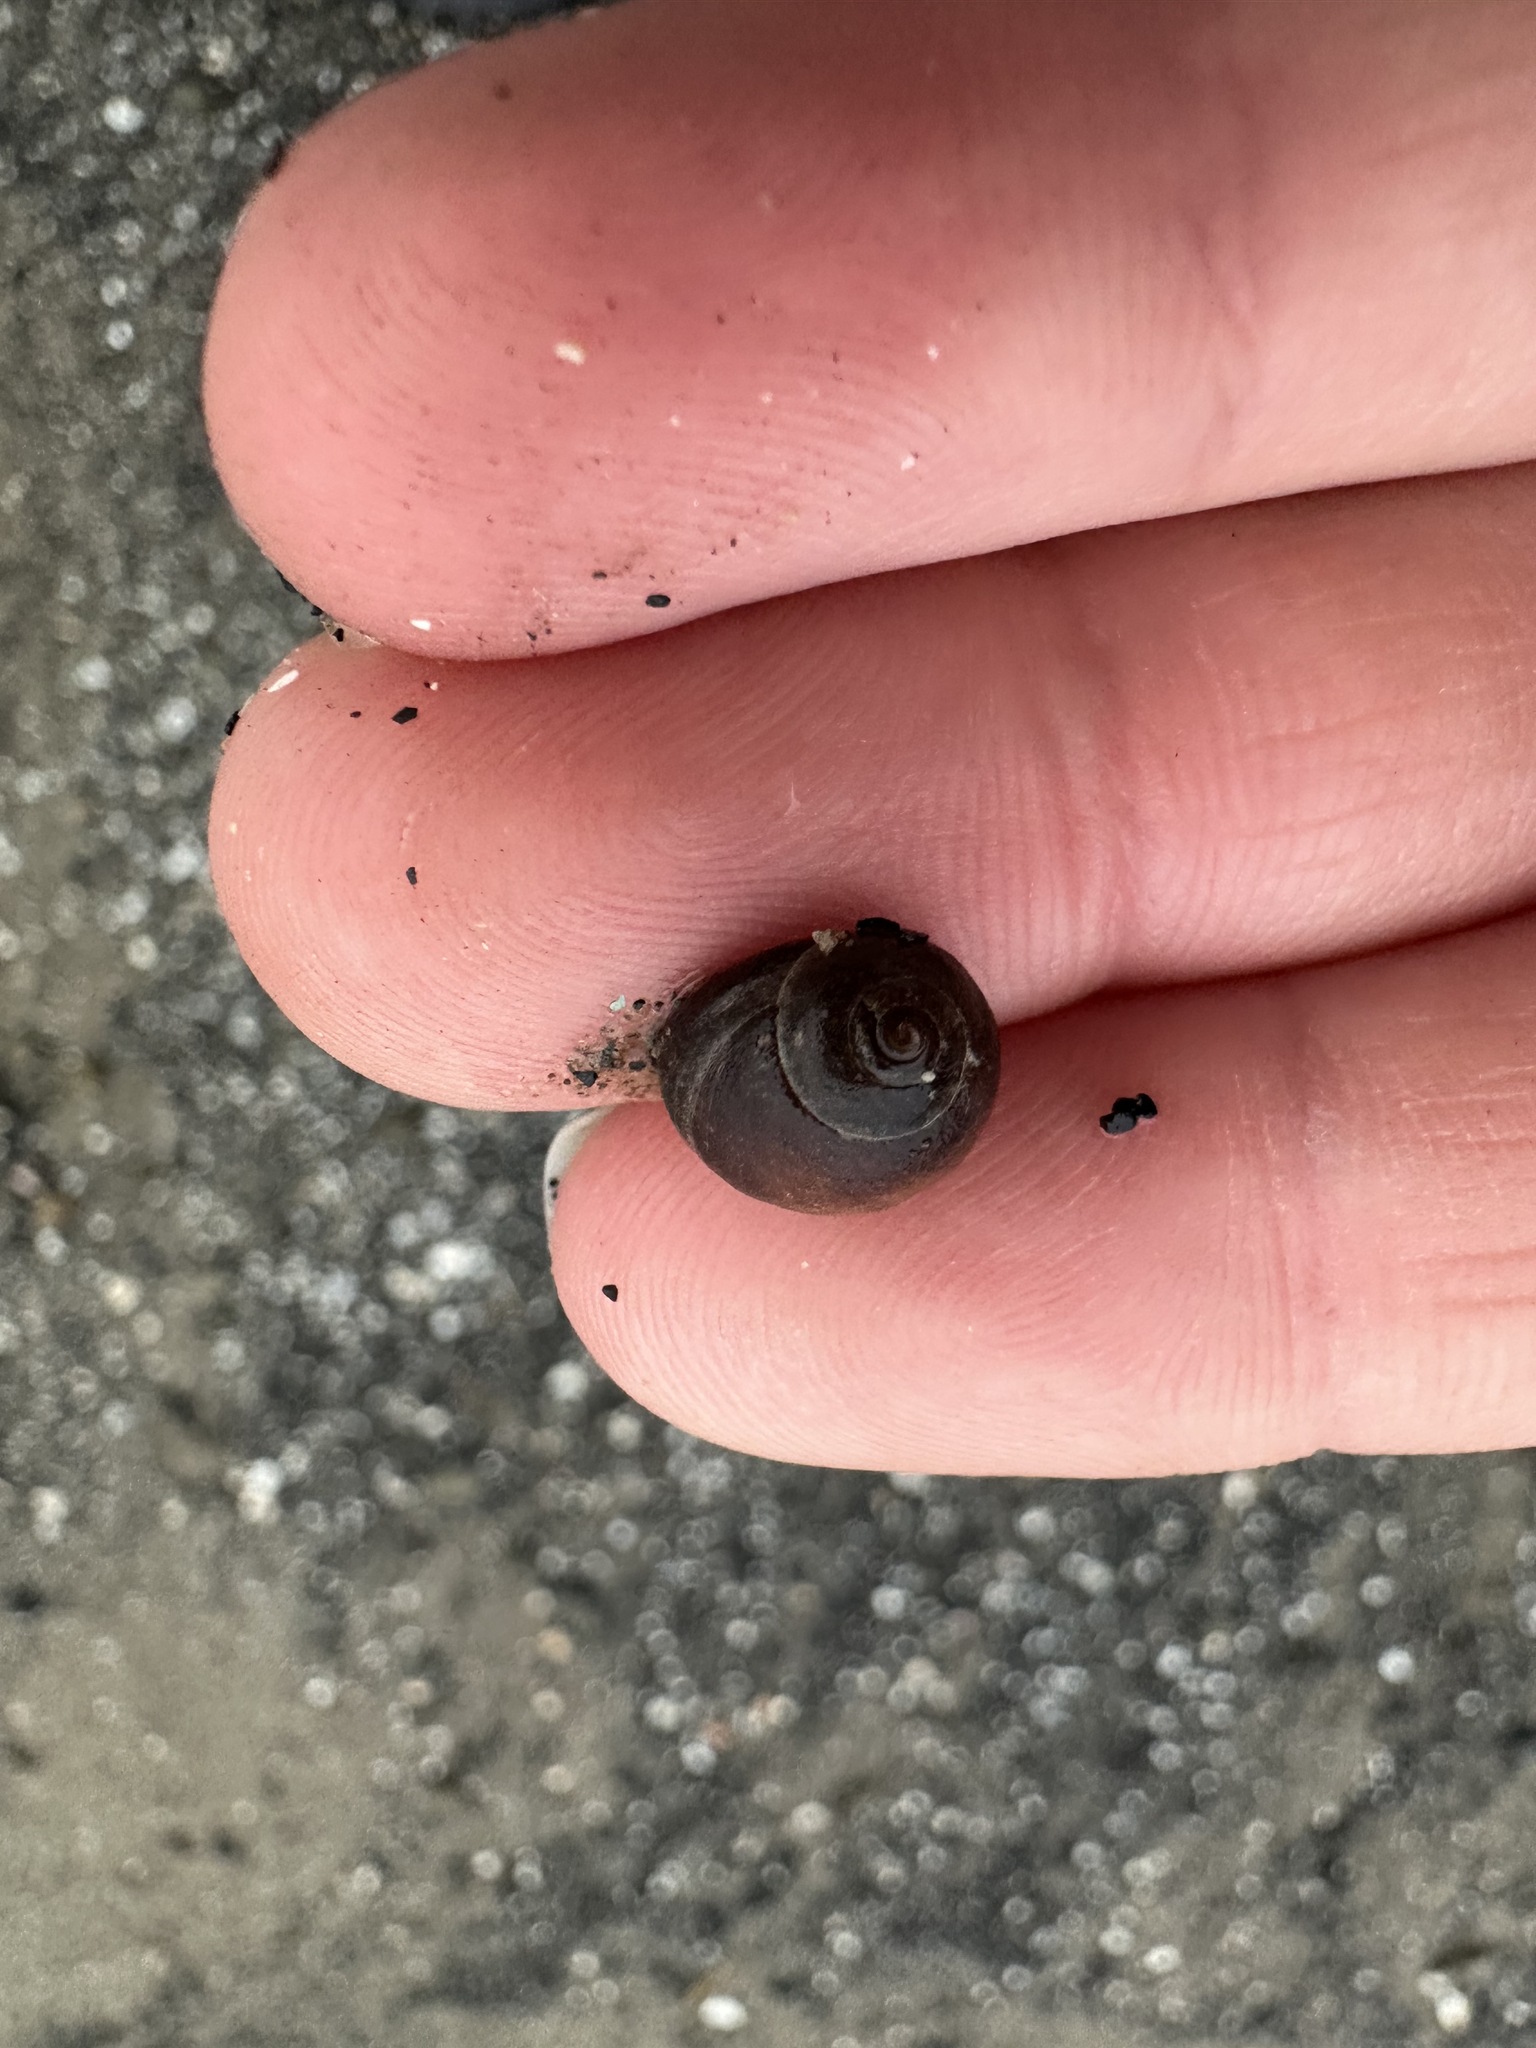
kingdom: Animalia
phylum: Mollusca
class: Gastropoda
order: Littorinimorpha
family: Littorinidae
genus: Littorina
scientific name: Littorina obtusata
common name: Flat periwinkle
